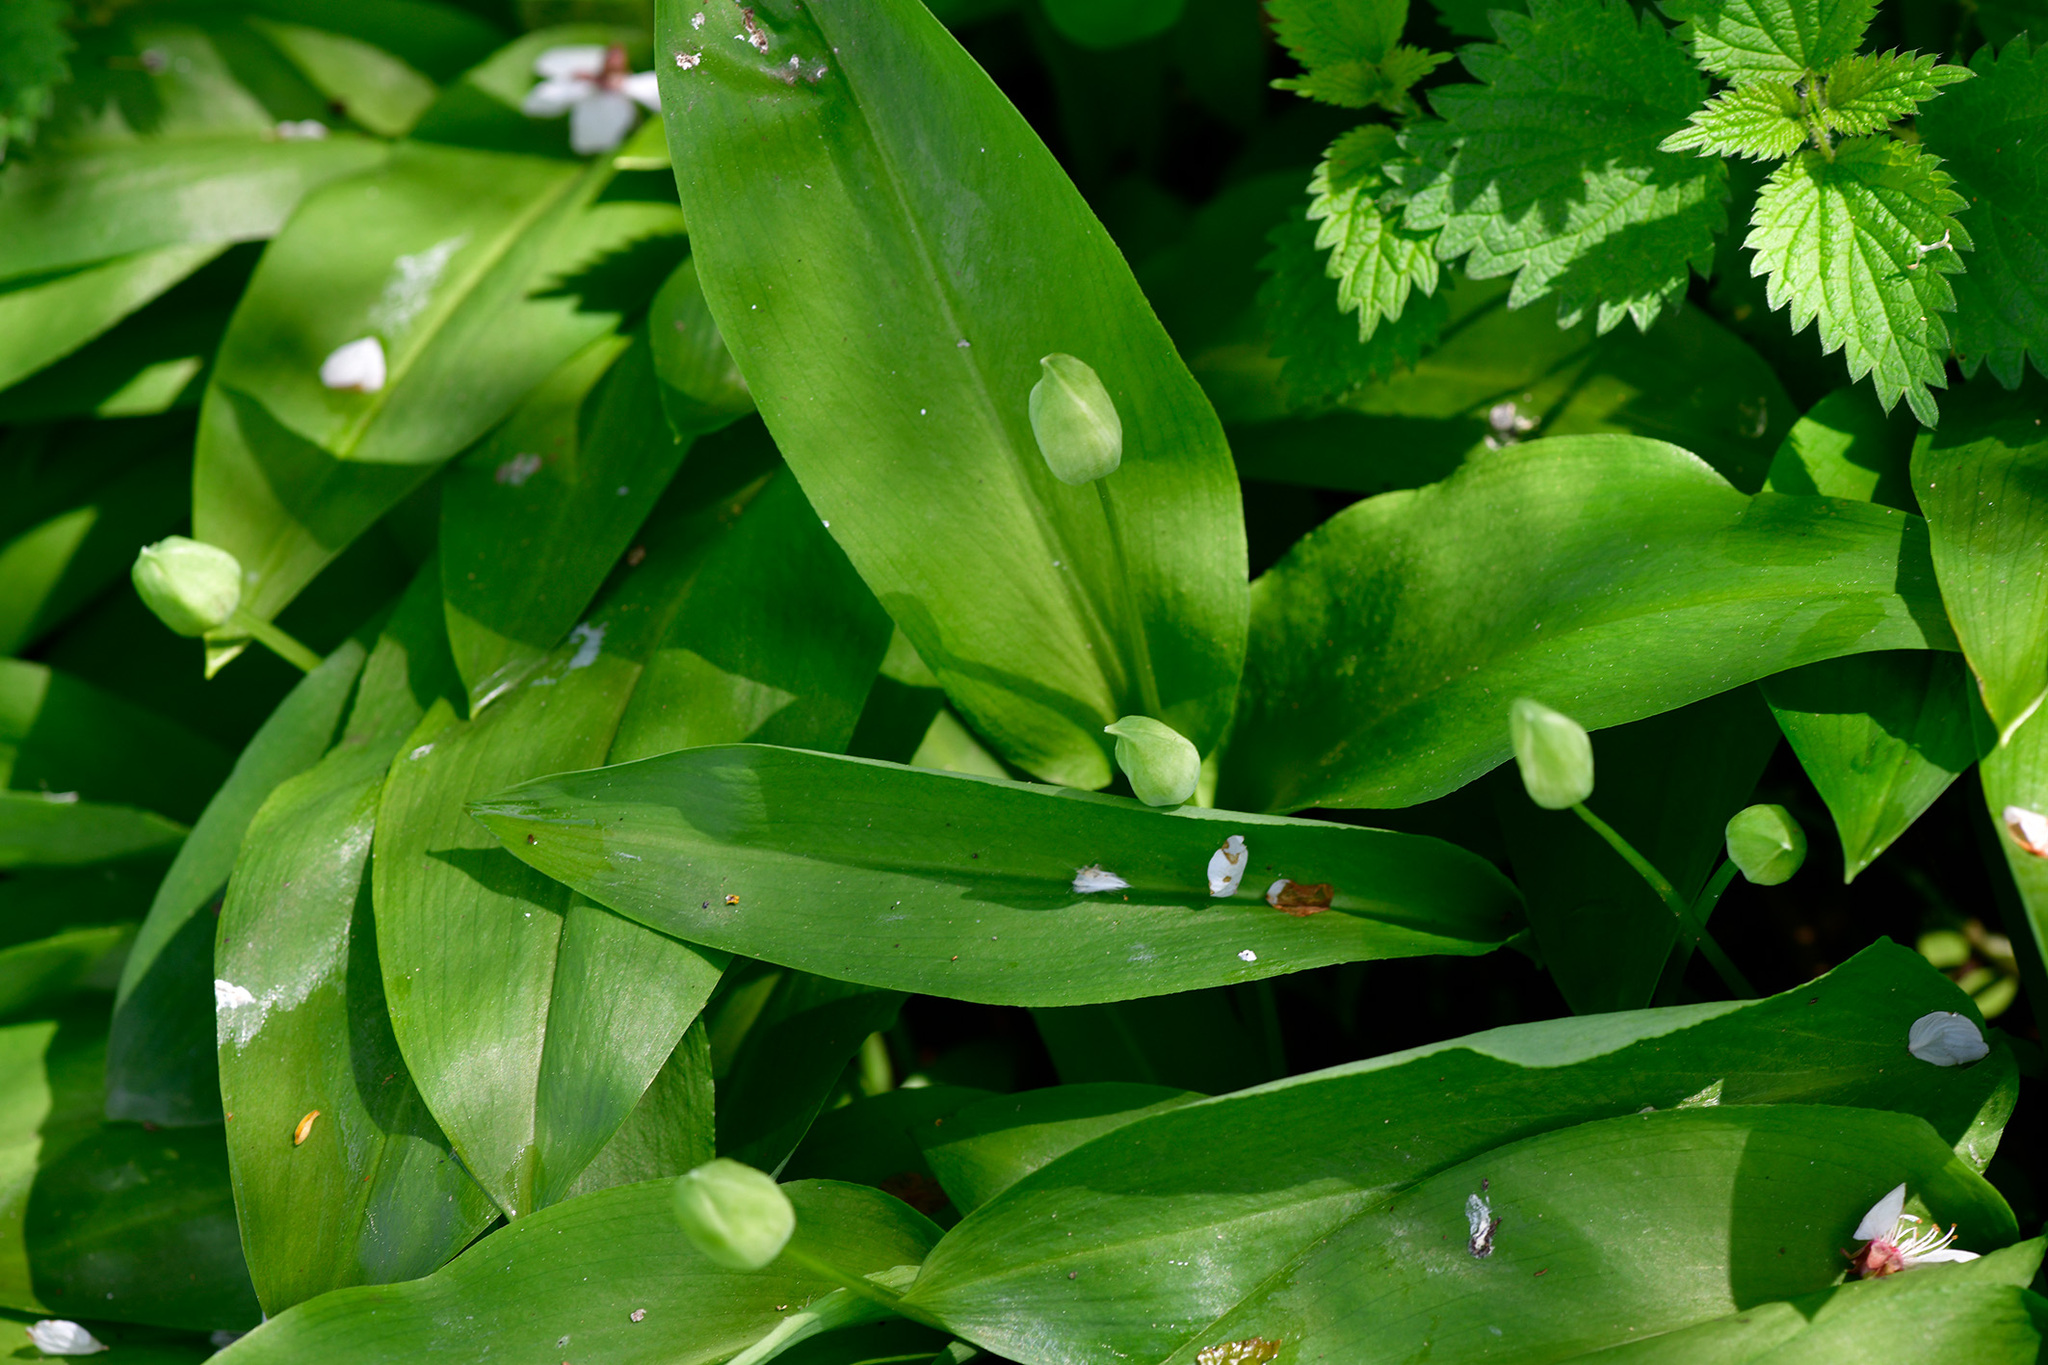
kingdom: Plantae
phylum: Tracheophyta
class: Liliopsida
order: Asparagales
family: Amaryllidaceae
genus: Allium
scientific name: Allium ursinum
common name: Ramsons
